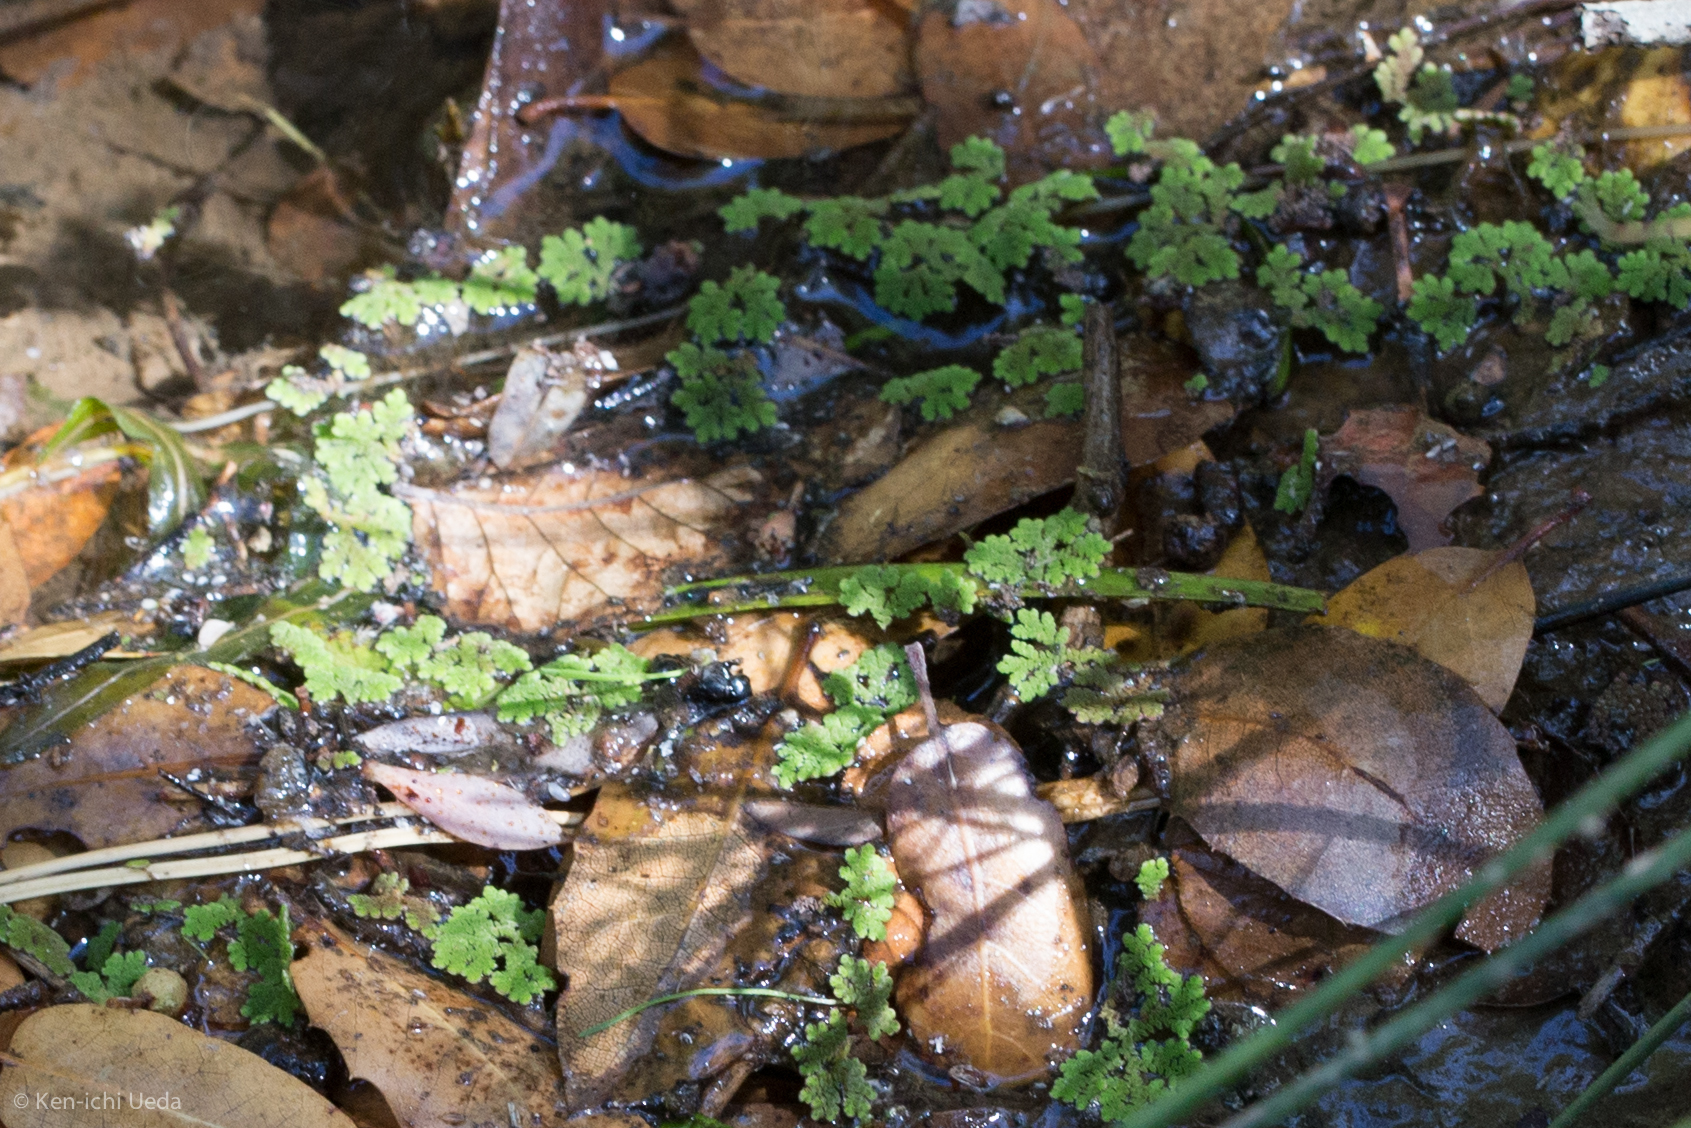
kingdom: Plantae
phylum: Tracheophyta
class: Polypodiopsida
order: Salviniales
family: Salviniaceae
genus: Azolla
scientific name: Azolla filiculoides
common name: Water fern
